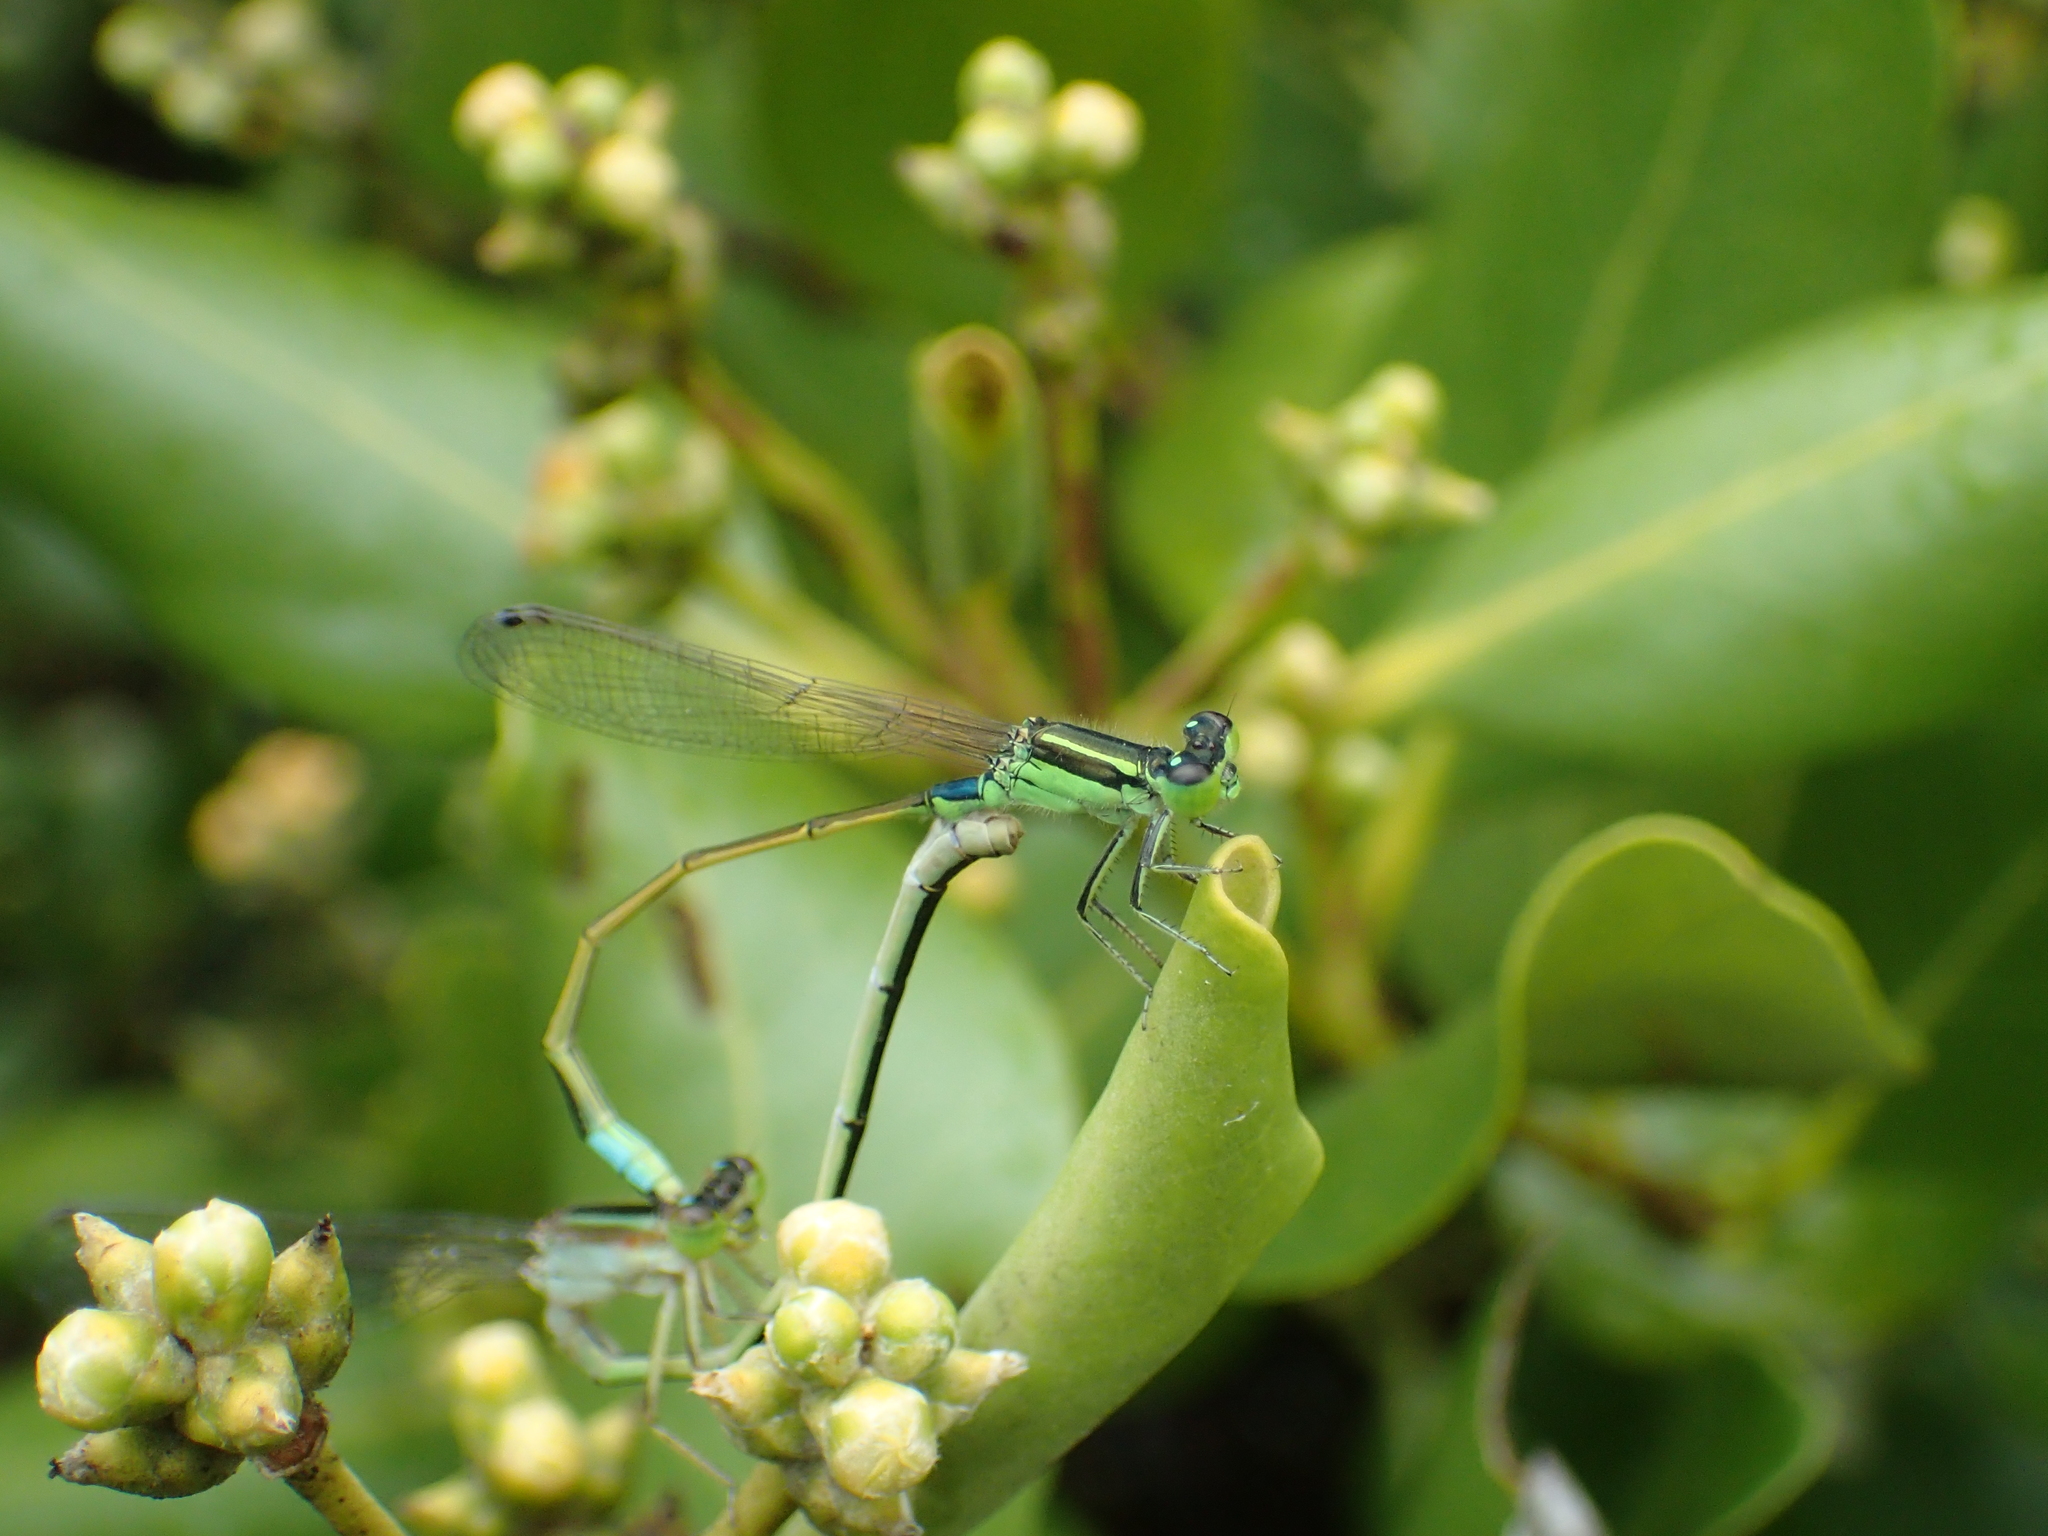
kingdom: Animalia
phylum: Arthropoda
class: Insecta
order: Odonata
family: Coenagrionidae
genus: Ischnura
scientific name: Ischnura senegalensis
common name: Tropical bluetail
